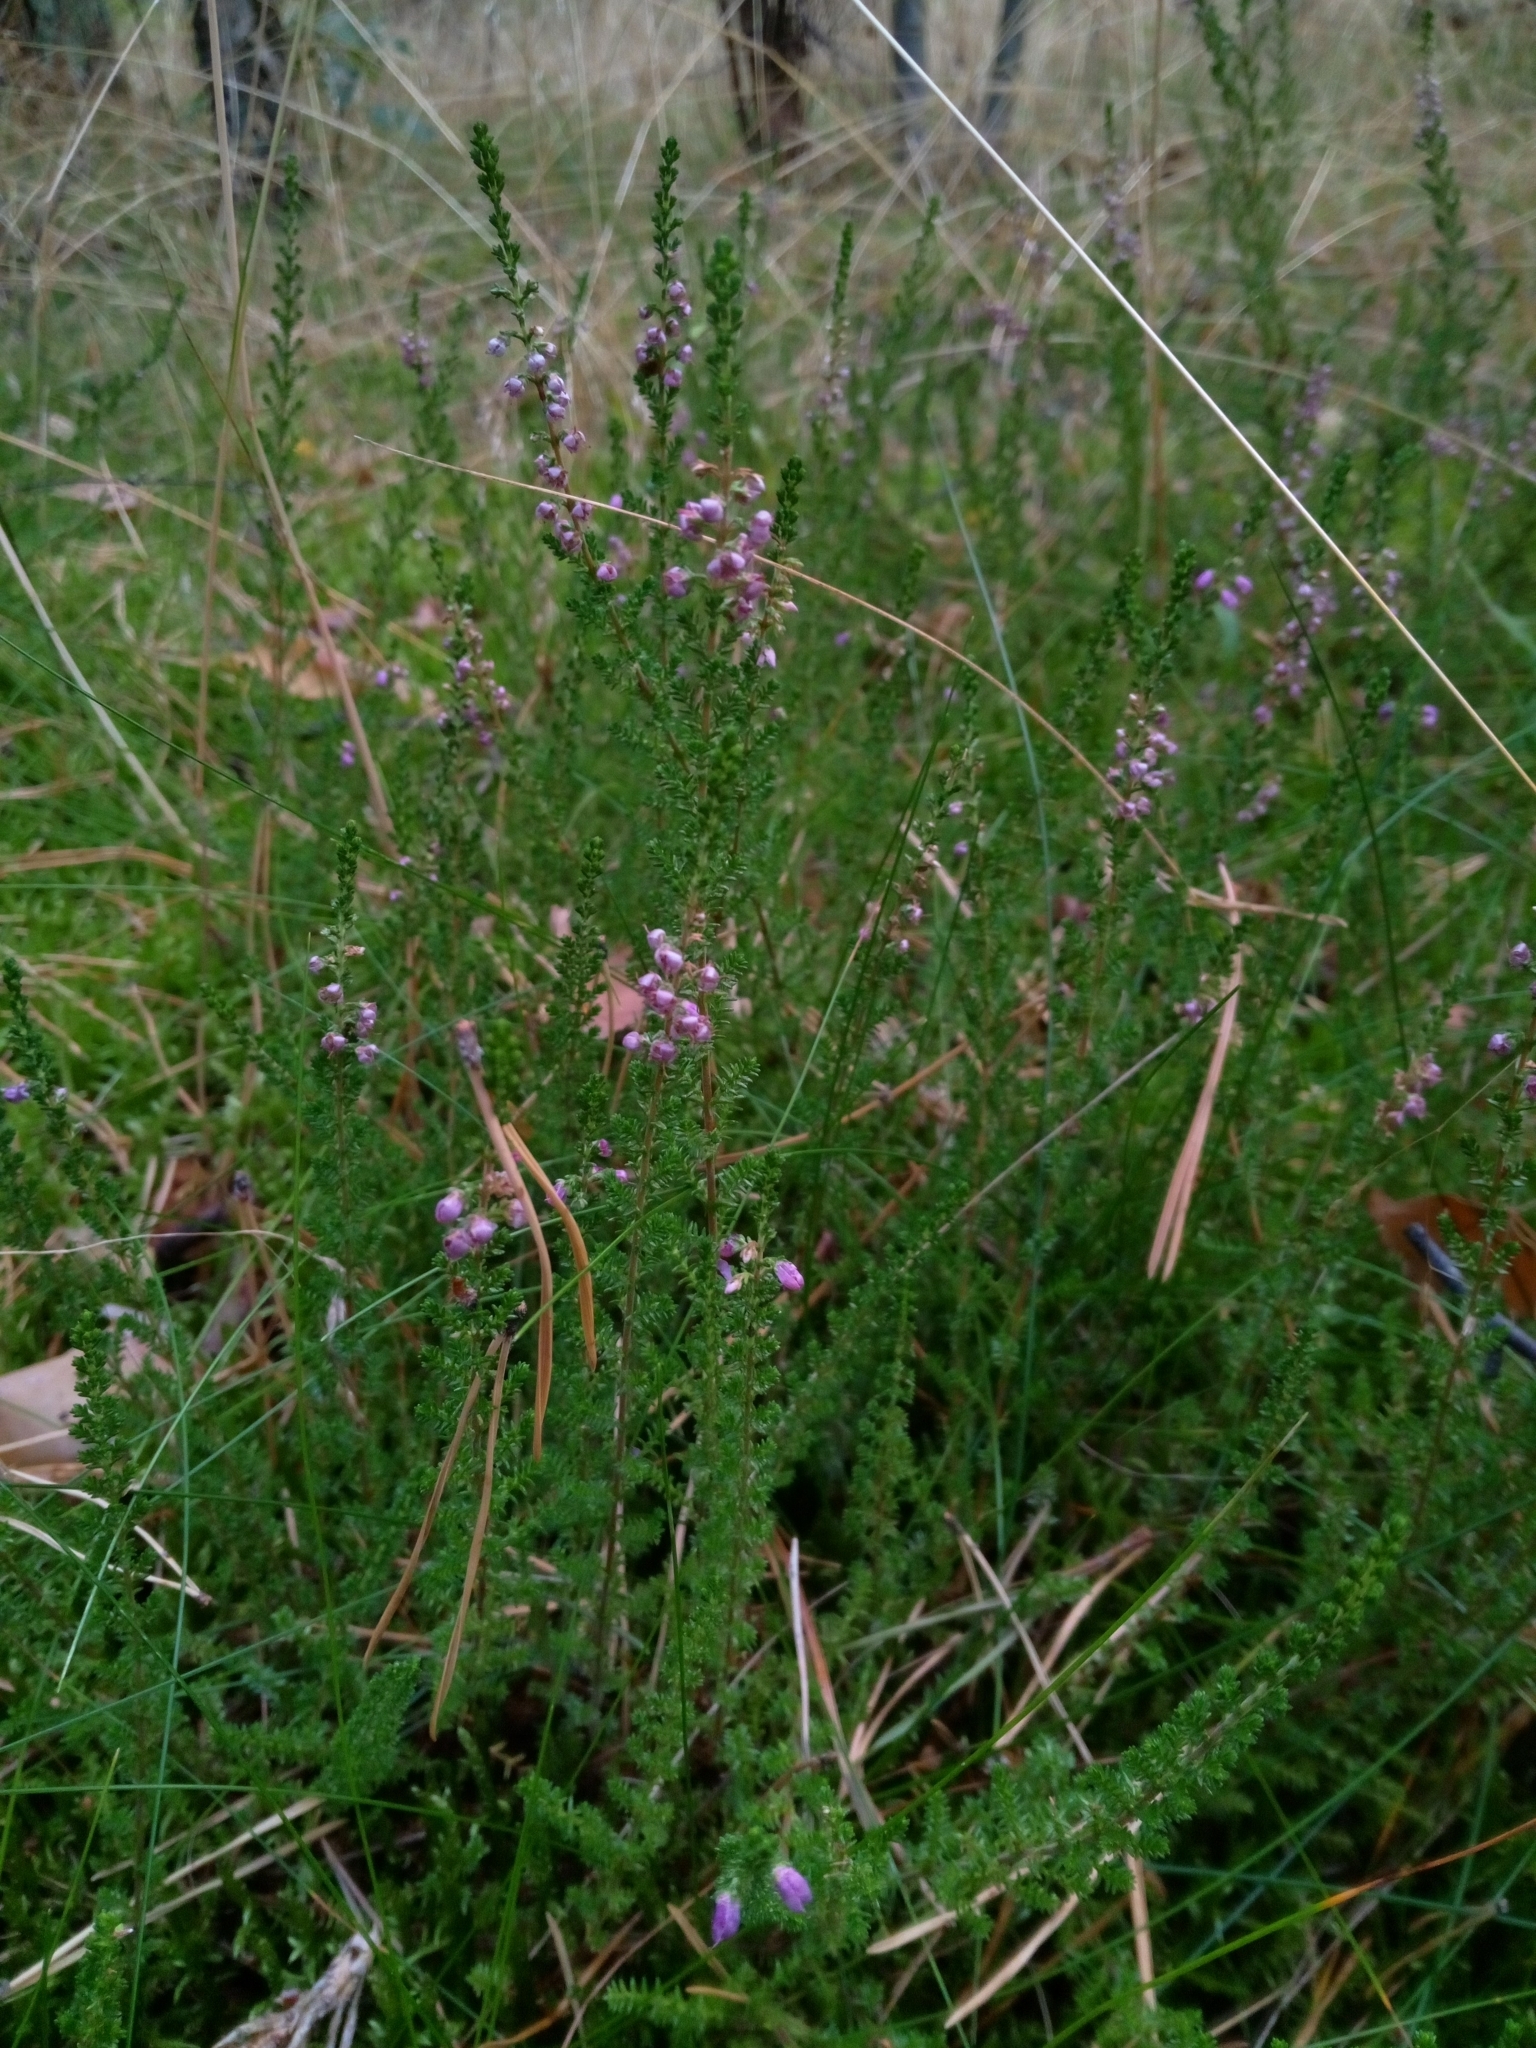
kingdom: Plantae
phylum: Tracheophyta
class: Magnoliopsida
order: Ericales
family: Ericaceae
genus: Calluna
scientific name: Calluna vulgaris
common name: Heather
